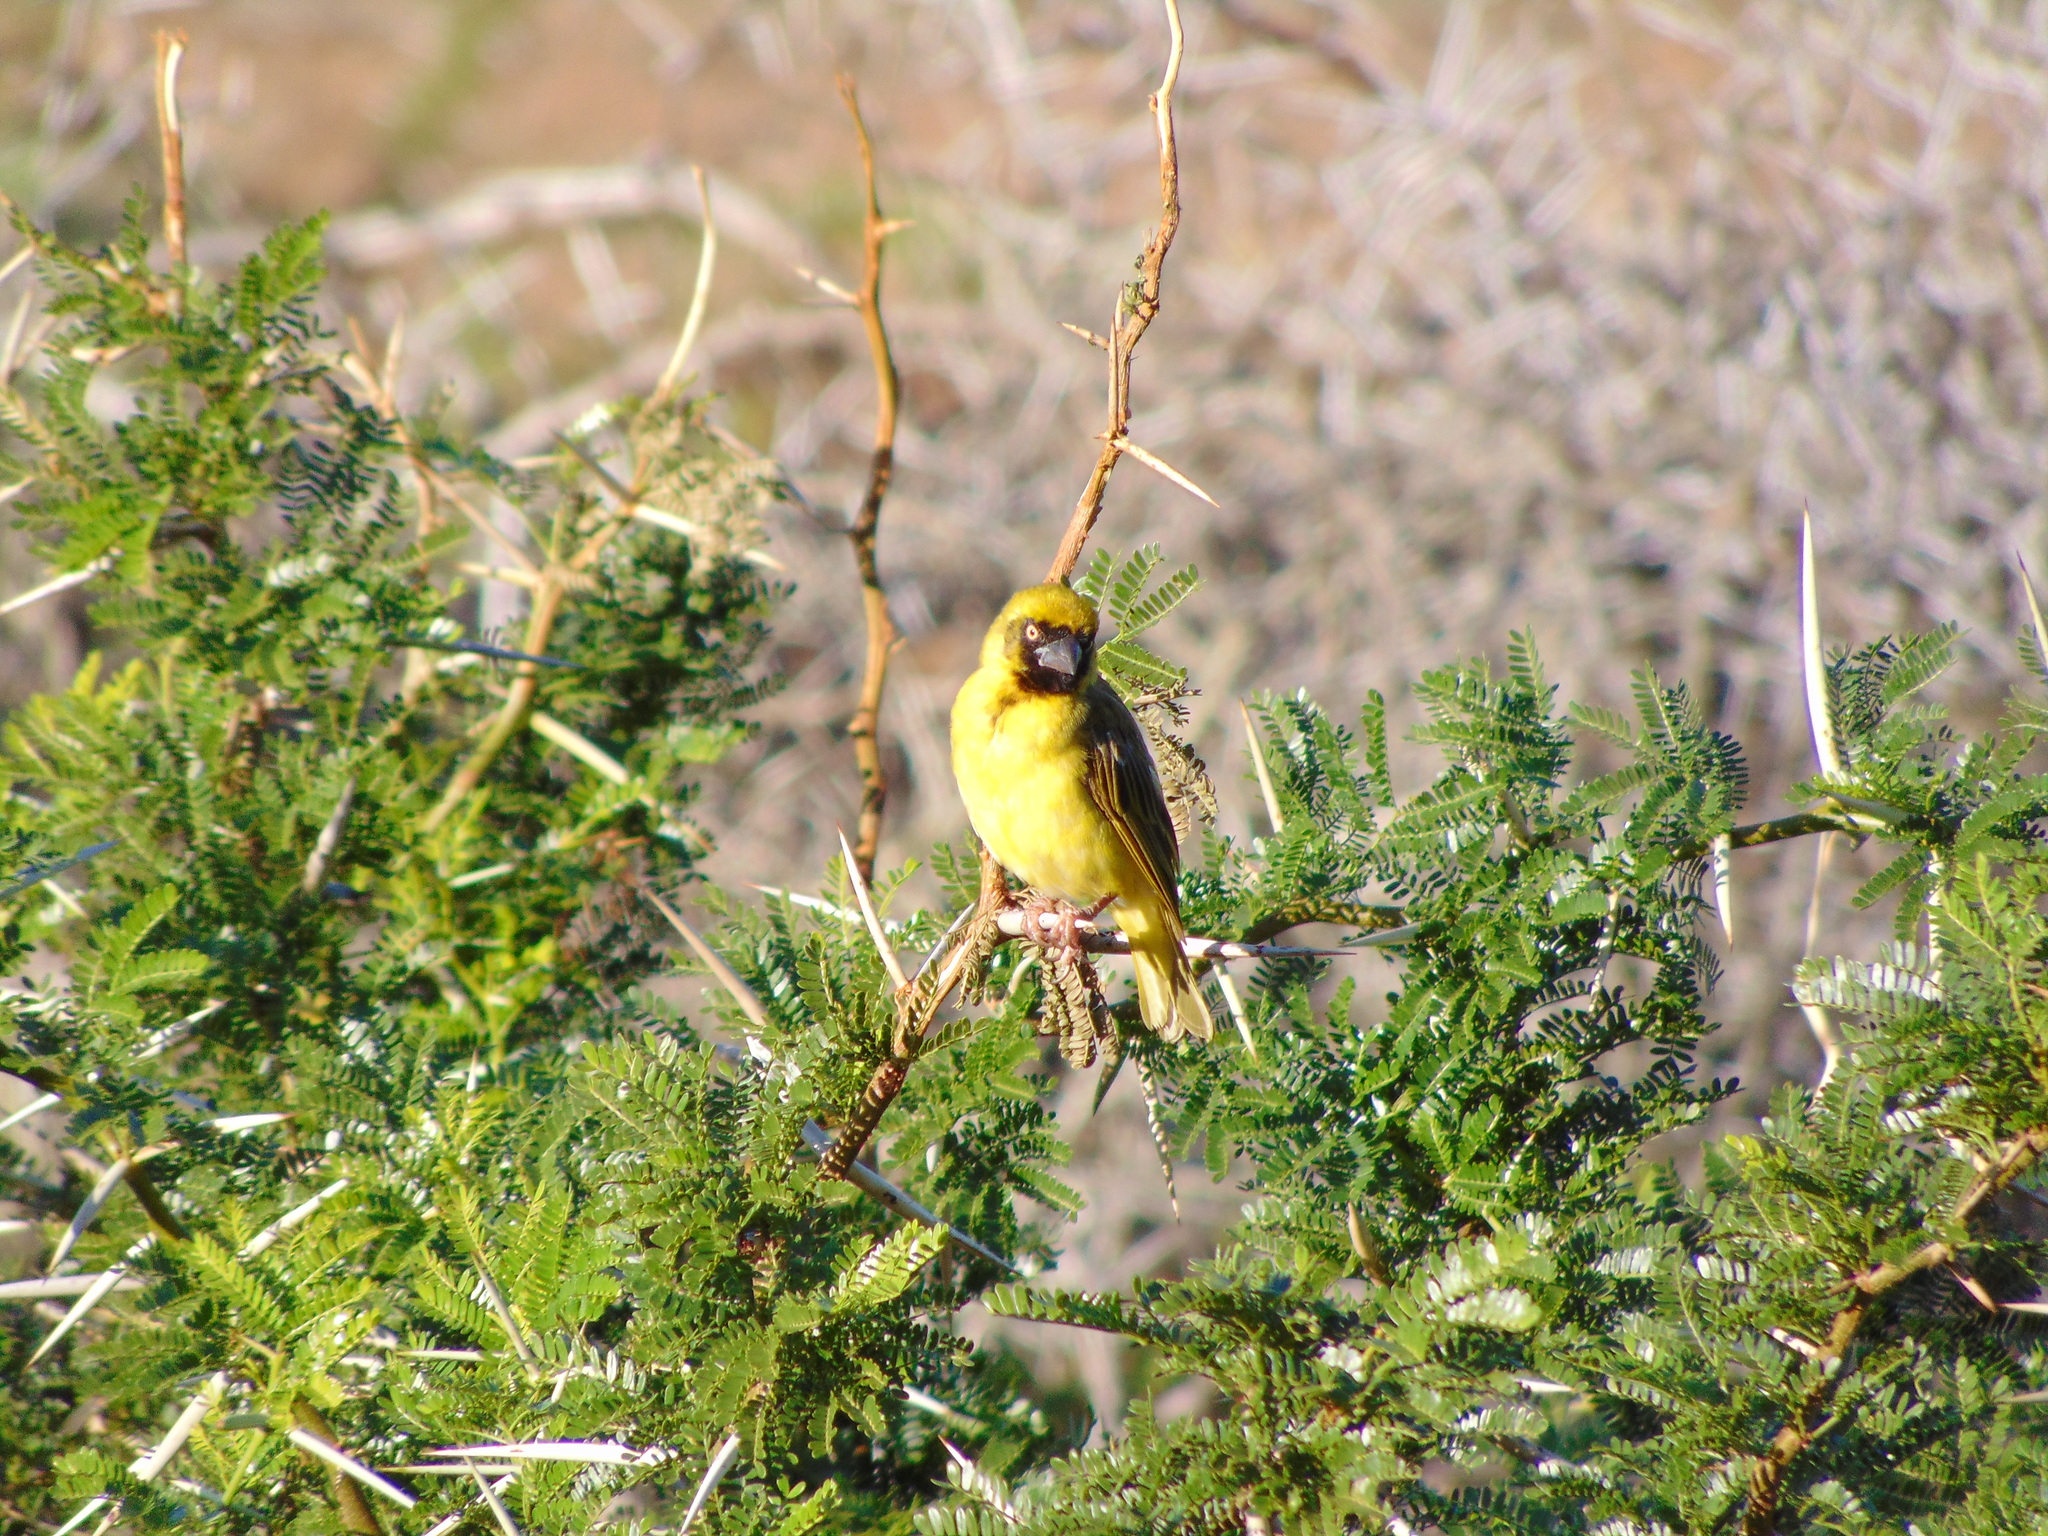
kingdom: Animalia
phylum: Chordata
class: Aves
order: Passeriformes
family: Ploceidae
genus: Ploceus
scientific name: Ploceus velatus
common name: Southern masked weaver
